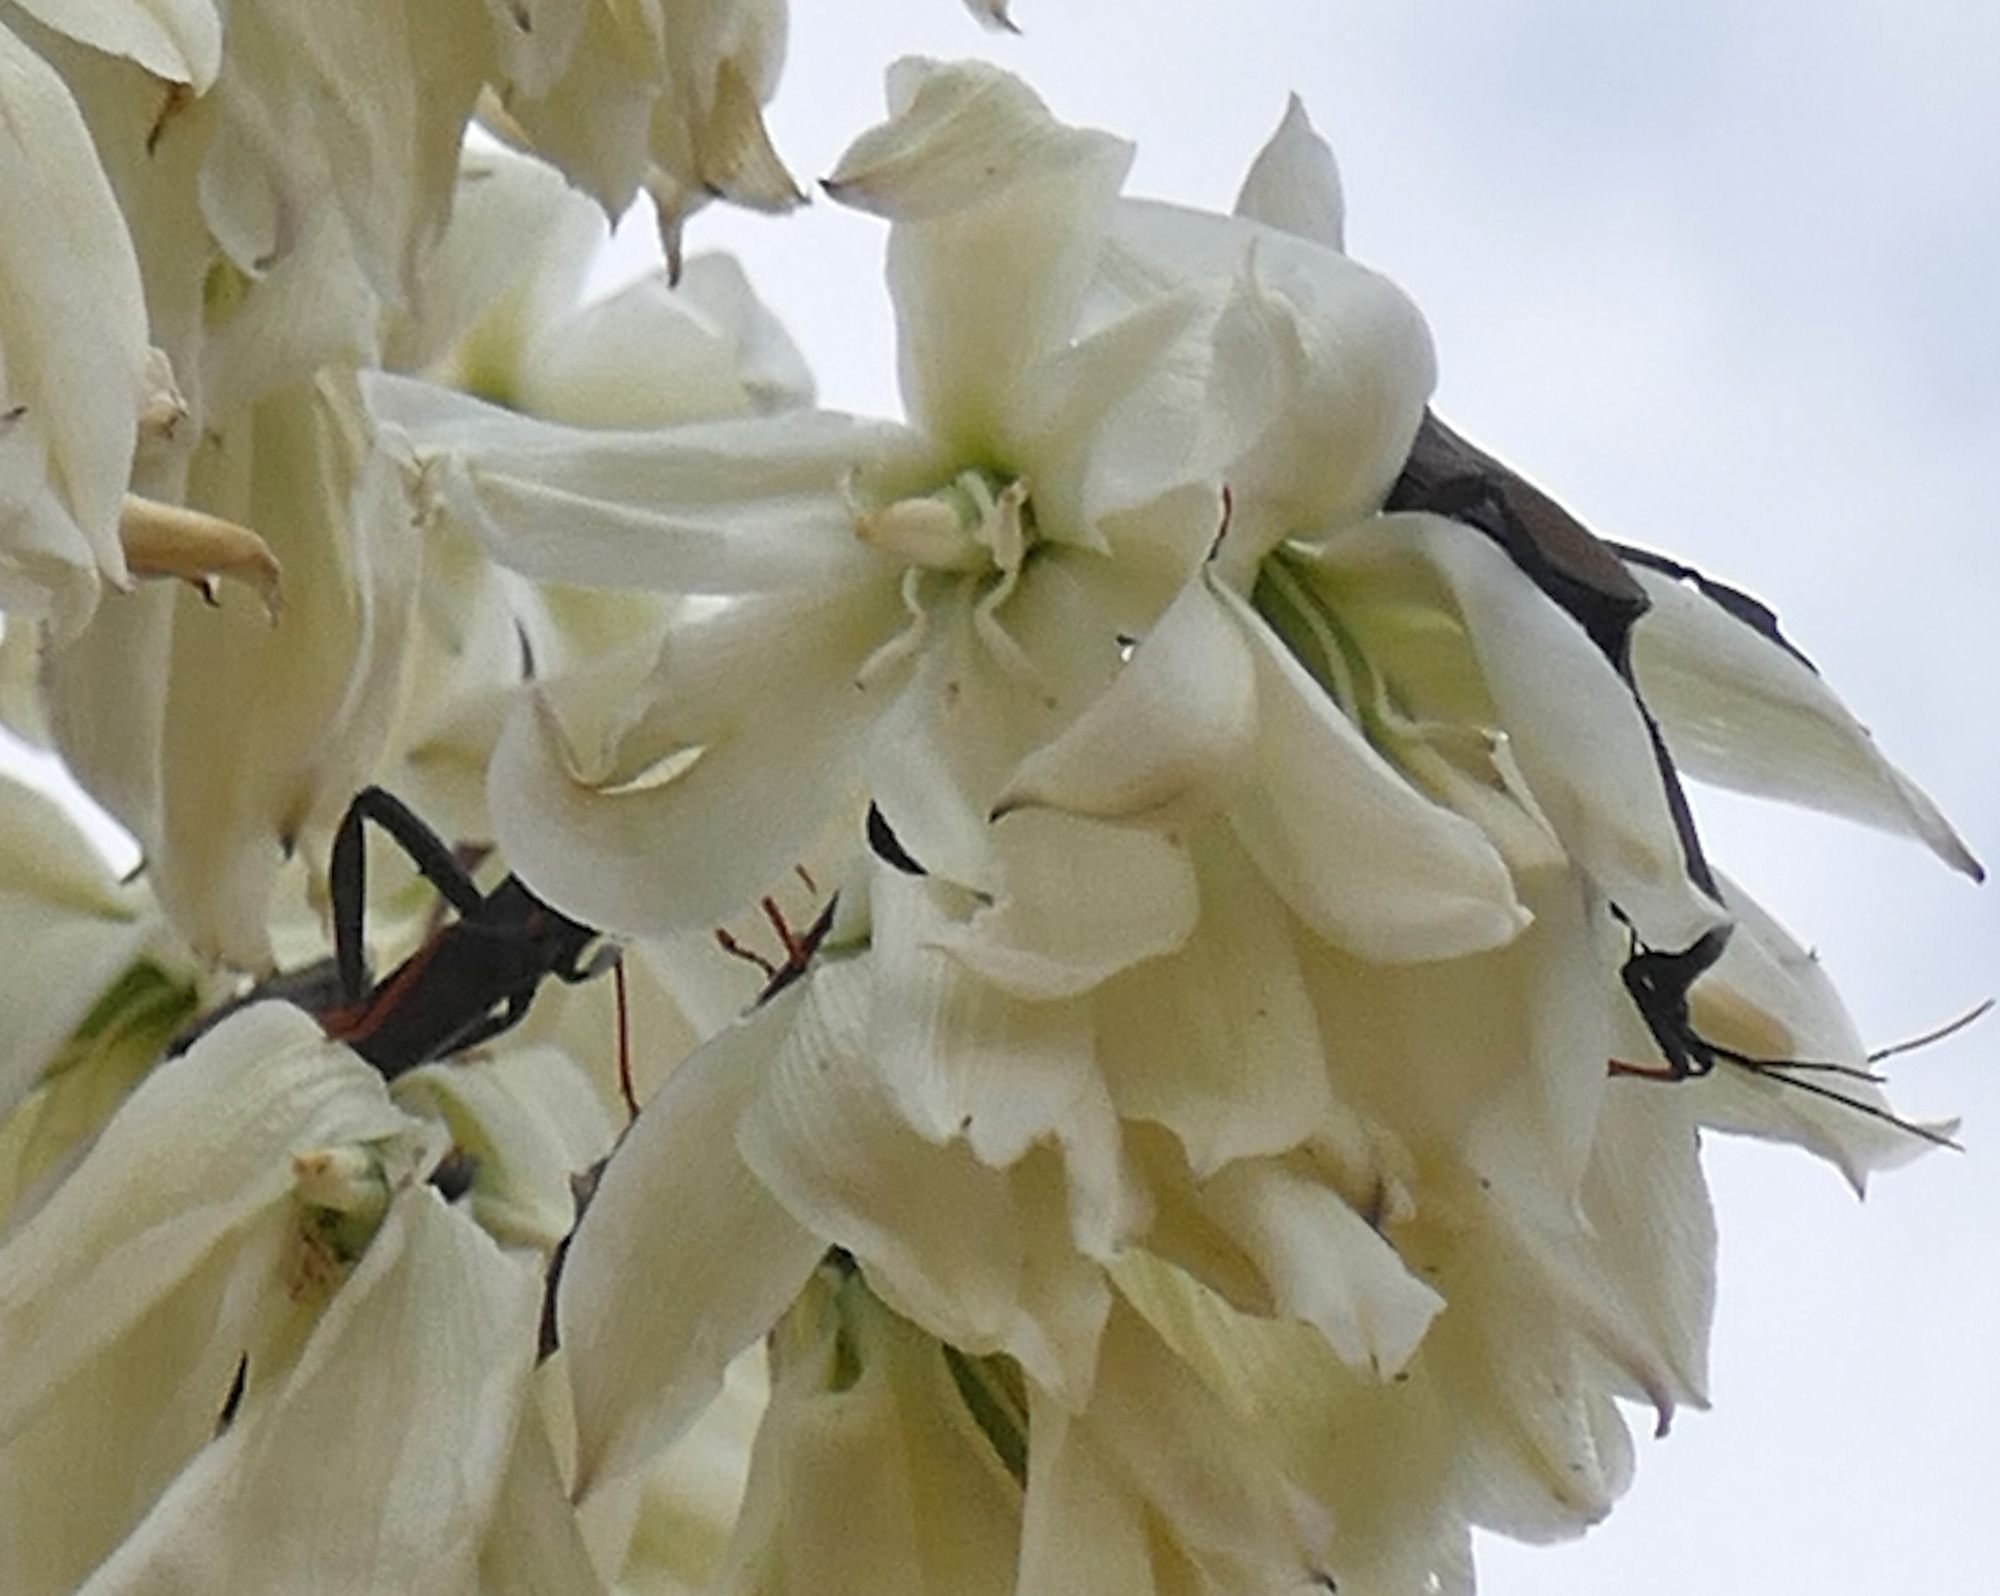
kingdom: Animalia
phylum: Arthropoda
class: Insecta
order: Hemiptera
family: Coreidae
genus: Acanthocephala
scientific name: Acanthocephala thomasi
